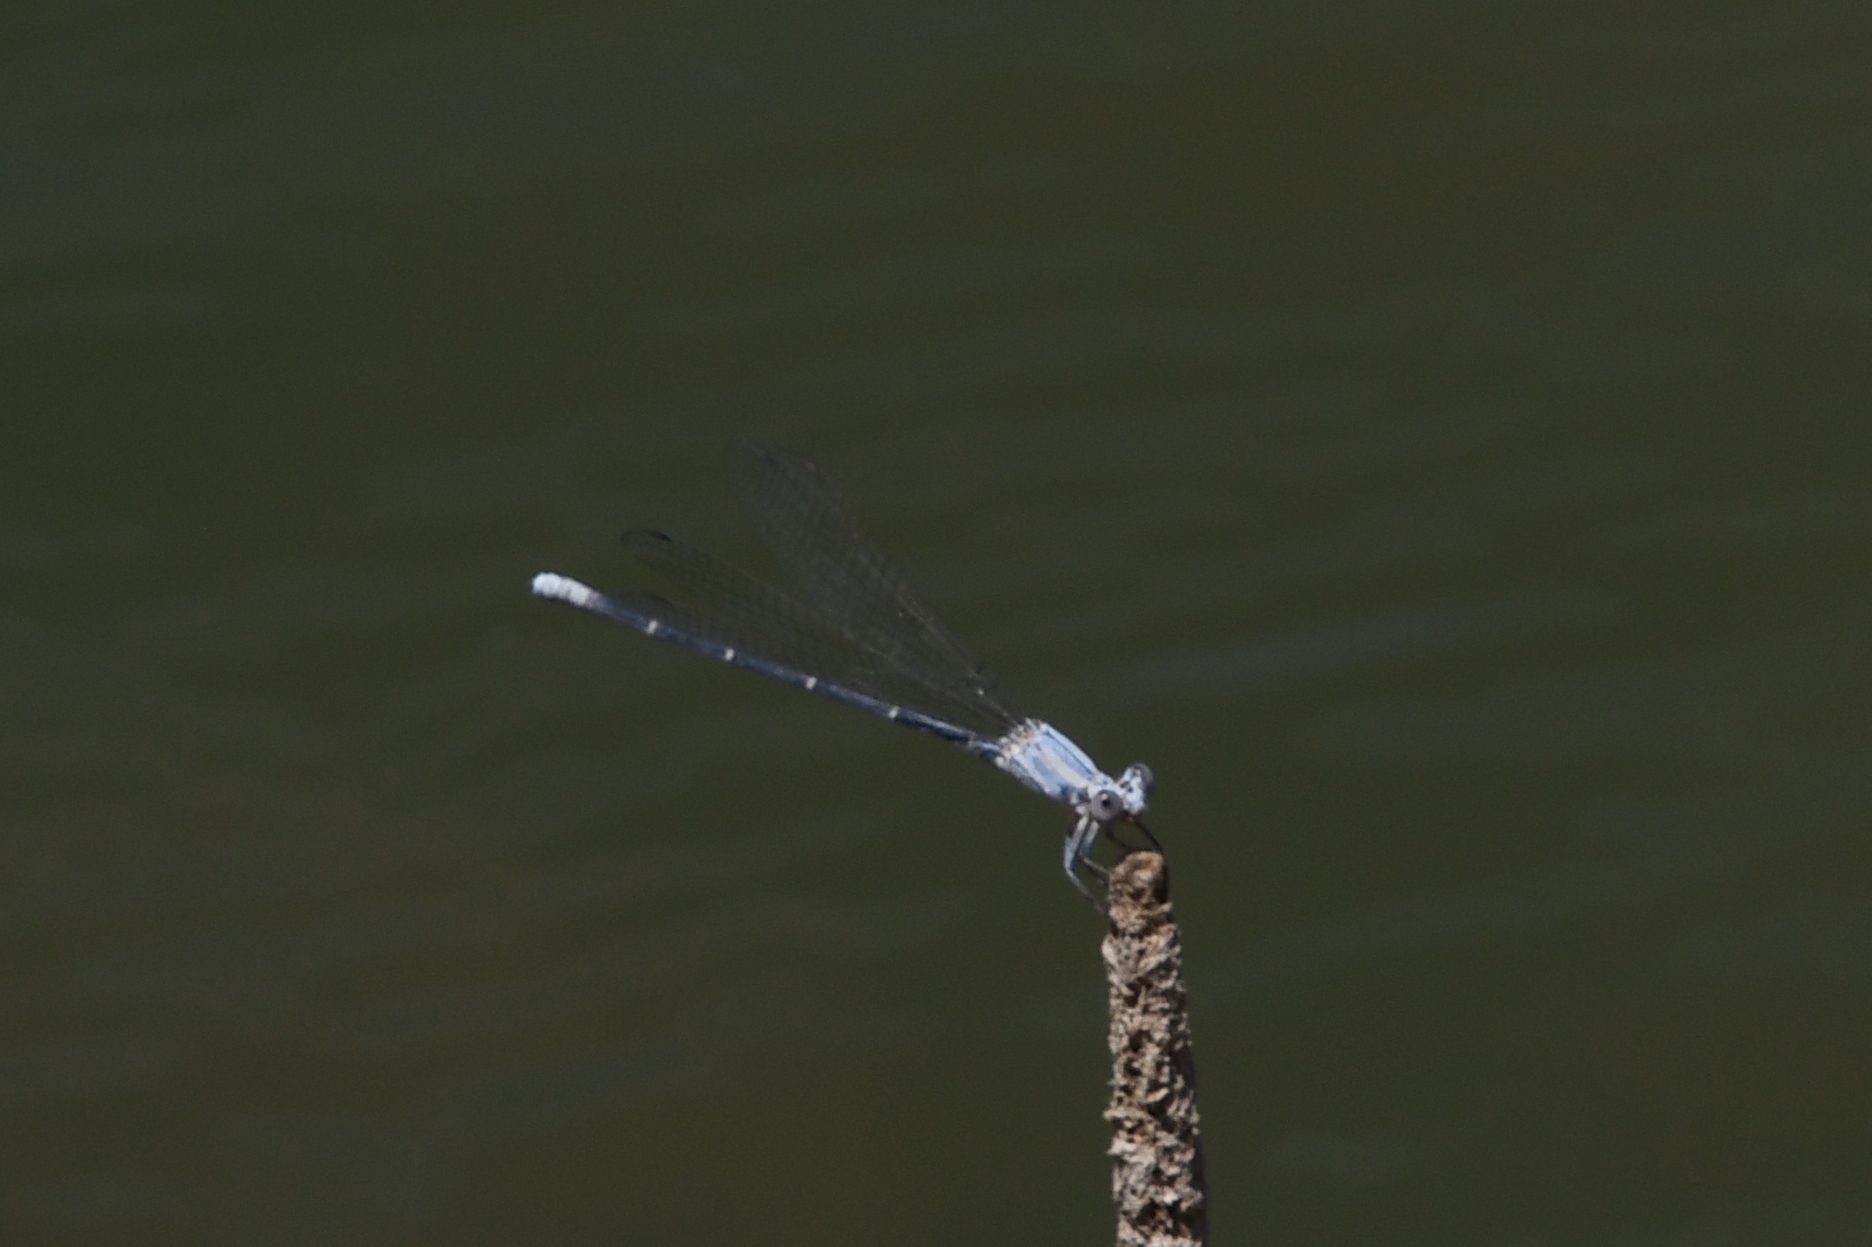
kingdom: Animalia
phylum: Arthropoda
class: Insecta
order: Odonata
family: Coenagrionidae
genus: Argia
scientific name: Argia moesta
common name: Powdered dancer
